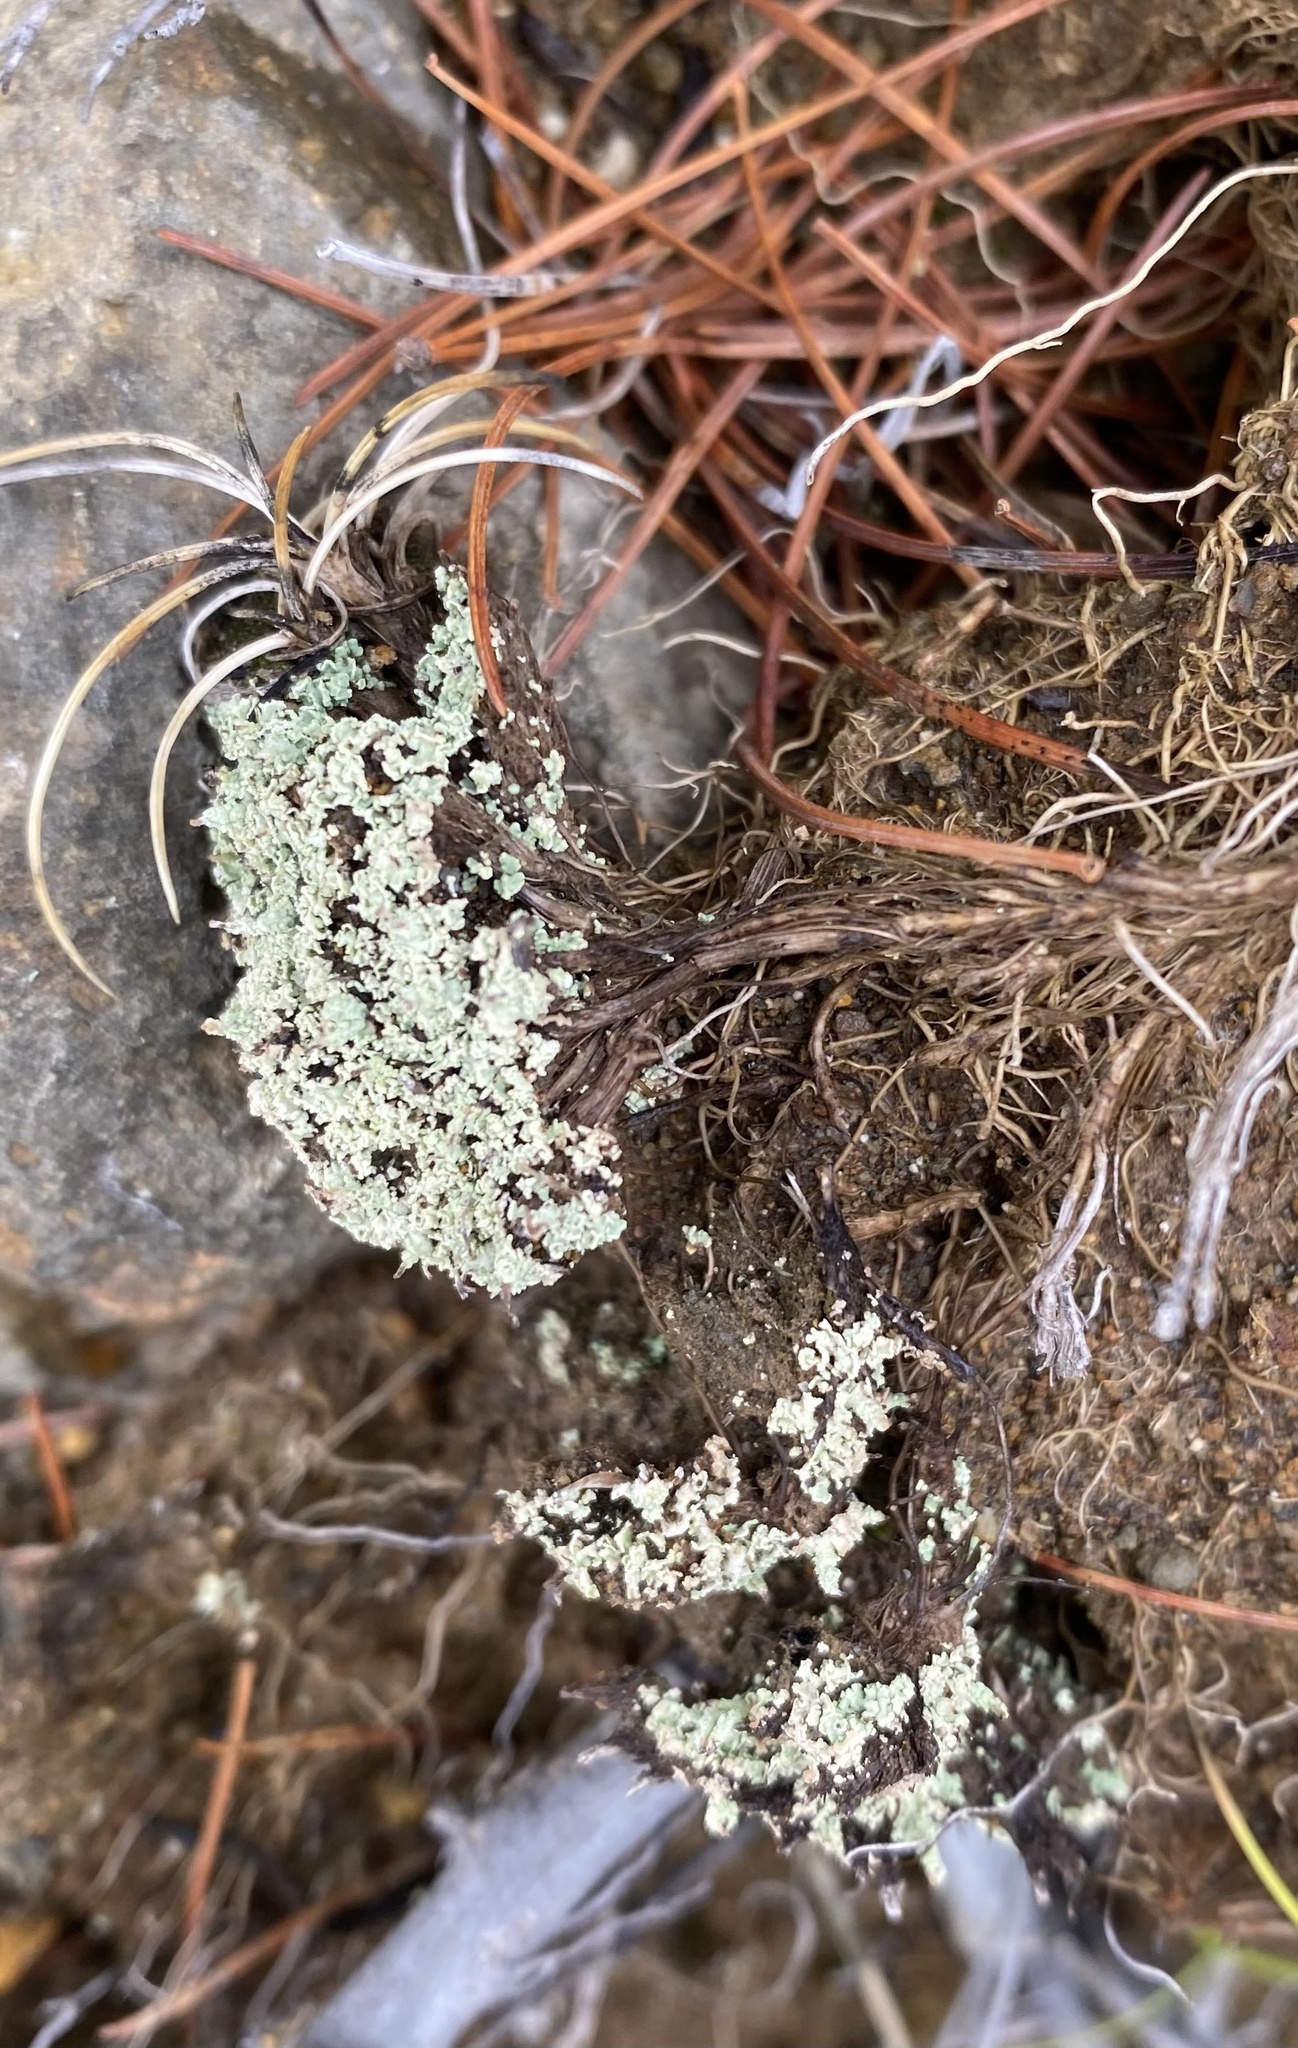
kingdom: Fungi
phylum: Ascomycota
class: Lecanoromycetes
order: Lecanorales
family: Cladoniaceae
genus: Cladonia
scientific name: Cladonia
